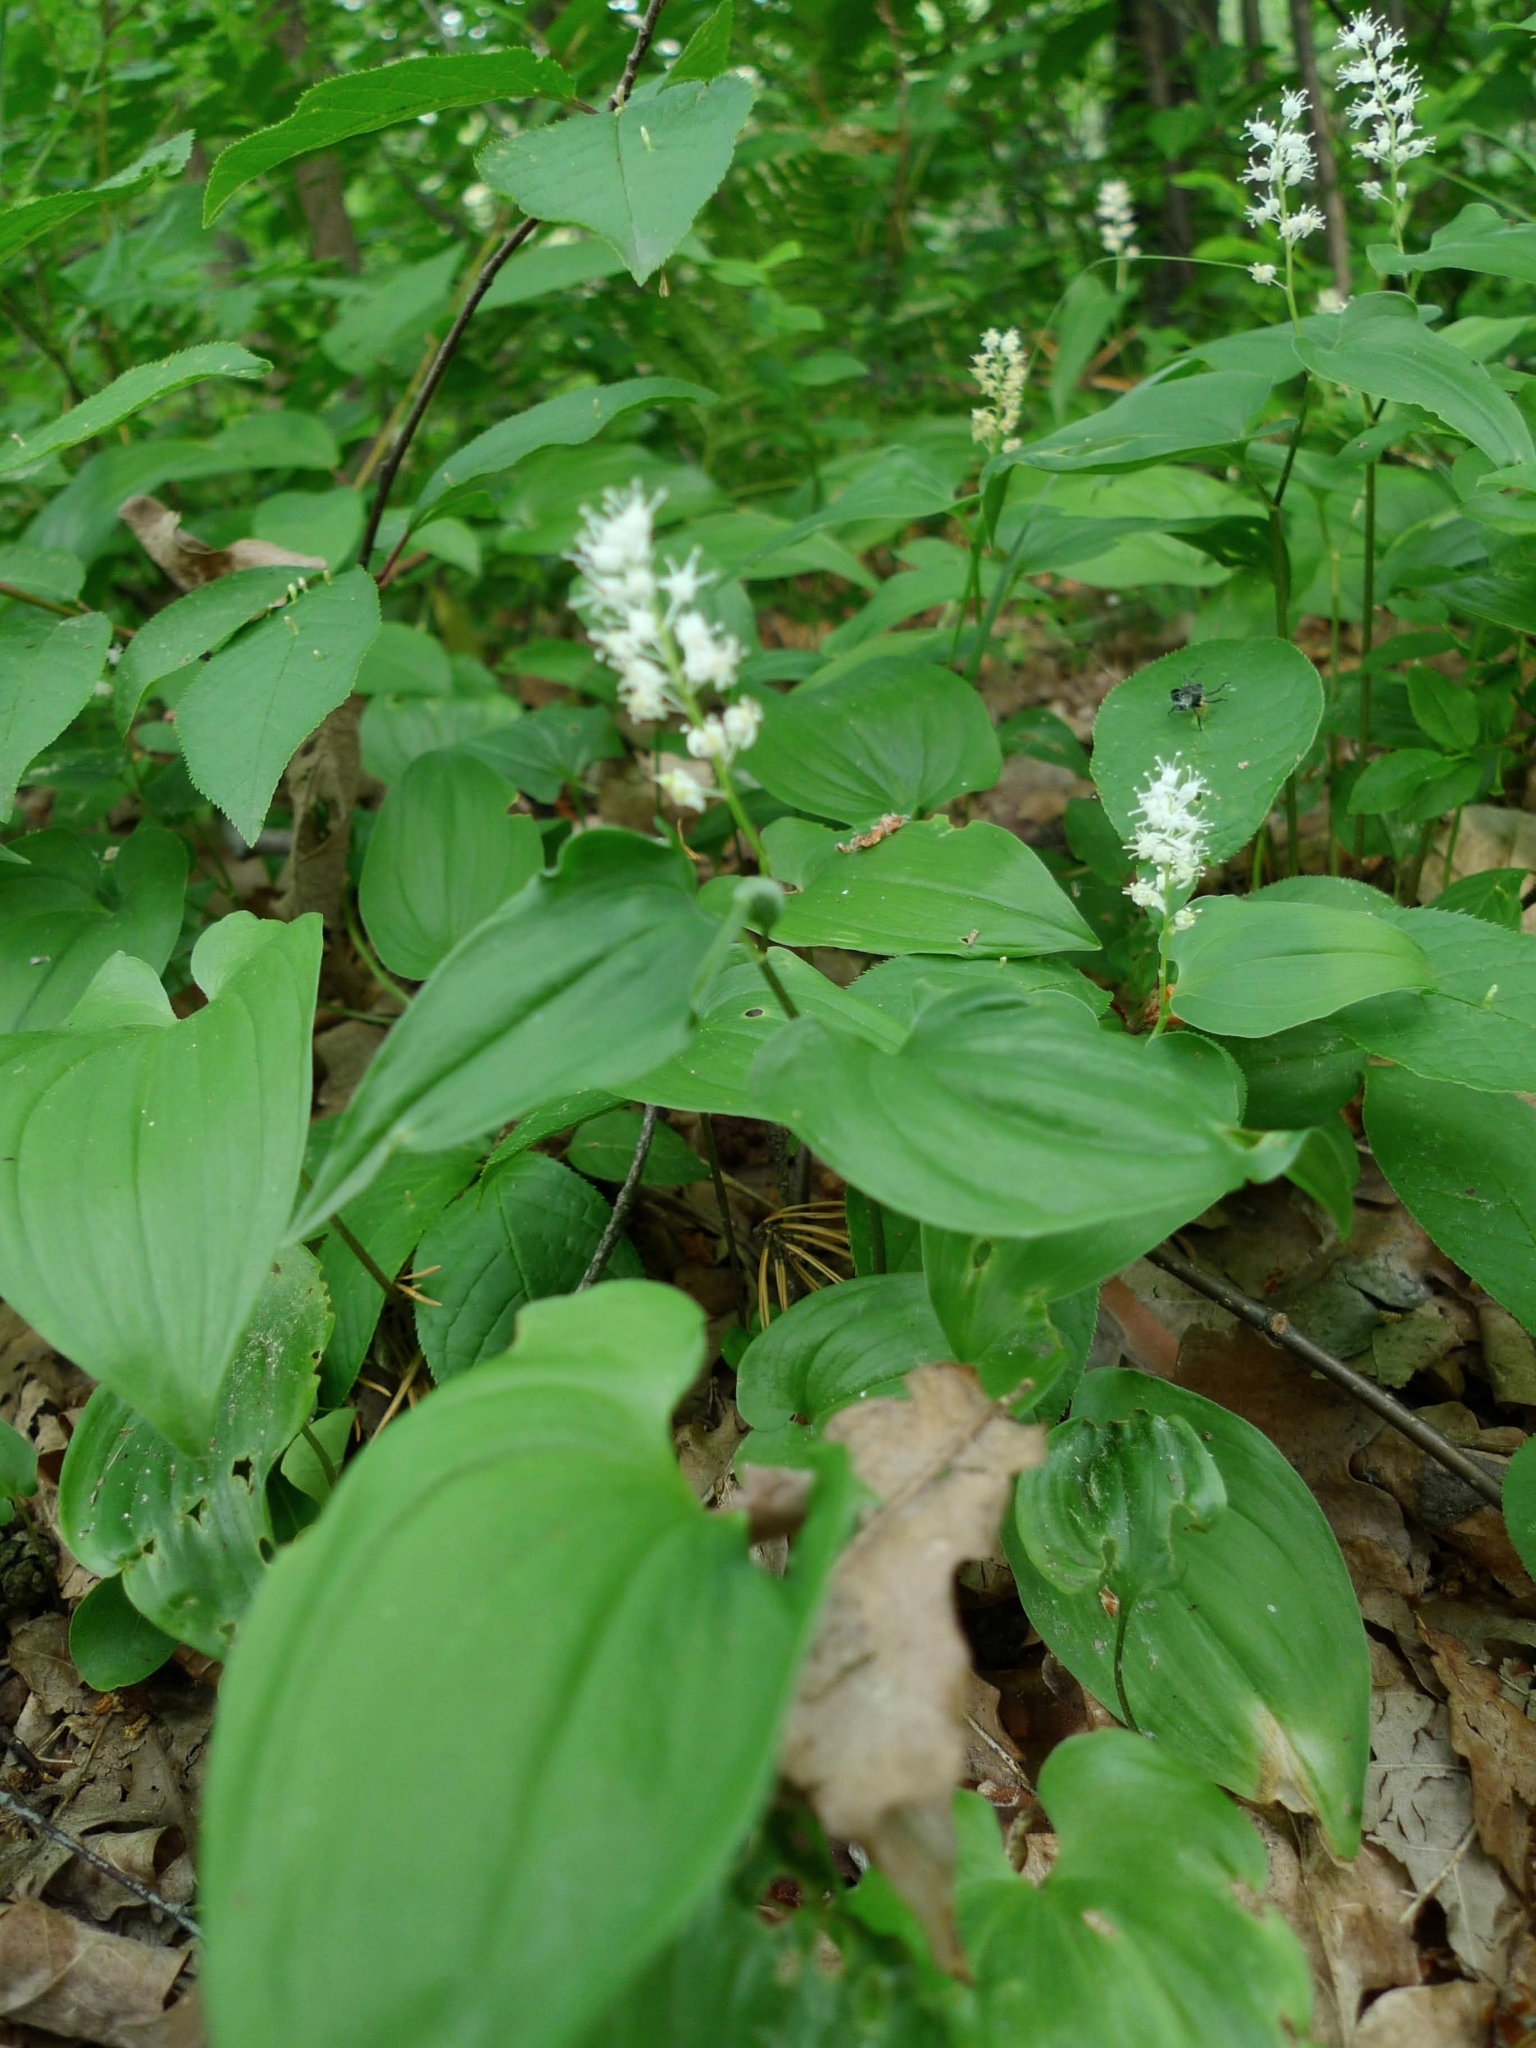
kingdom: Plantae
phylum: Tracheophyta
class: Liliopsida
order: Asparagales
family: Asparagaceae
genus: Maianthemum
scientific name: Maianthemum bifolium
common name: May lily
